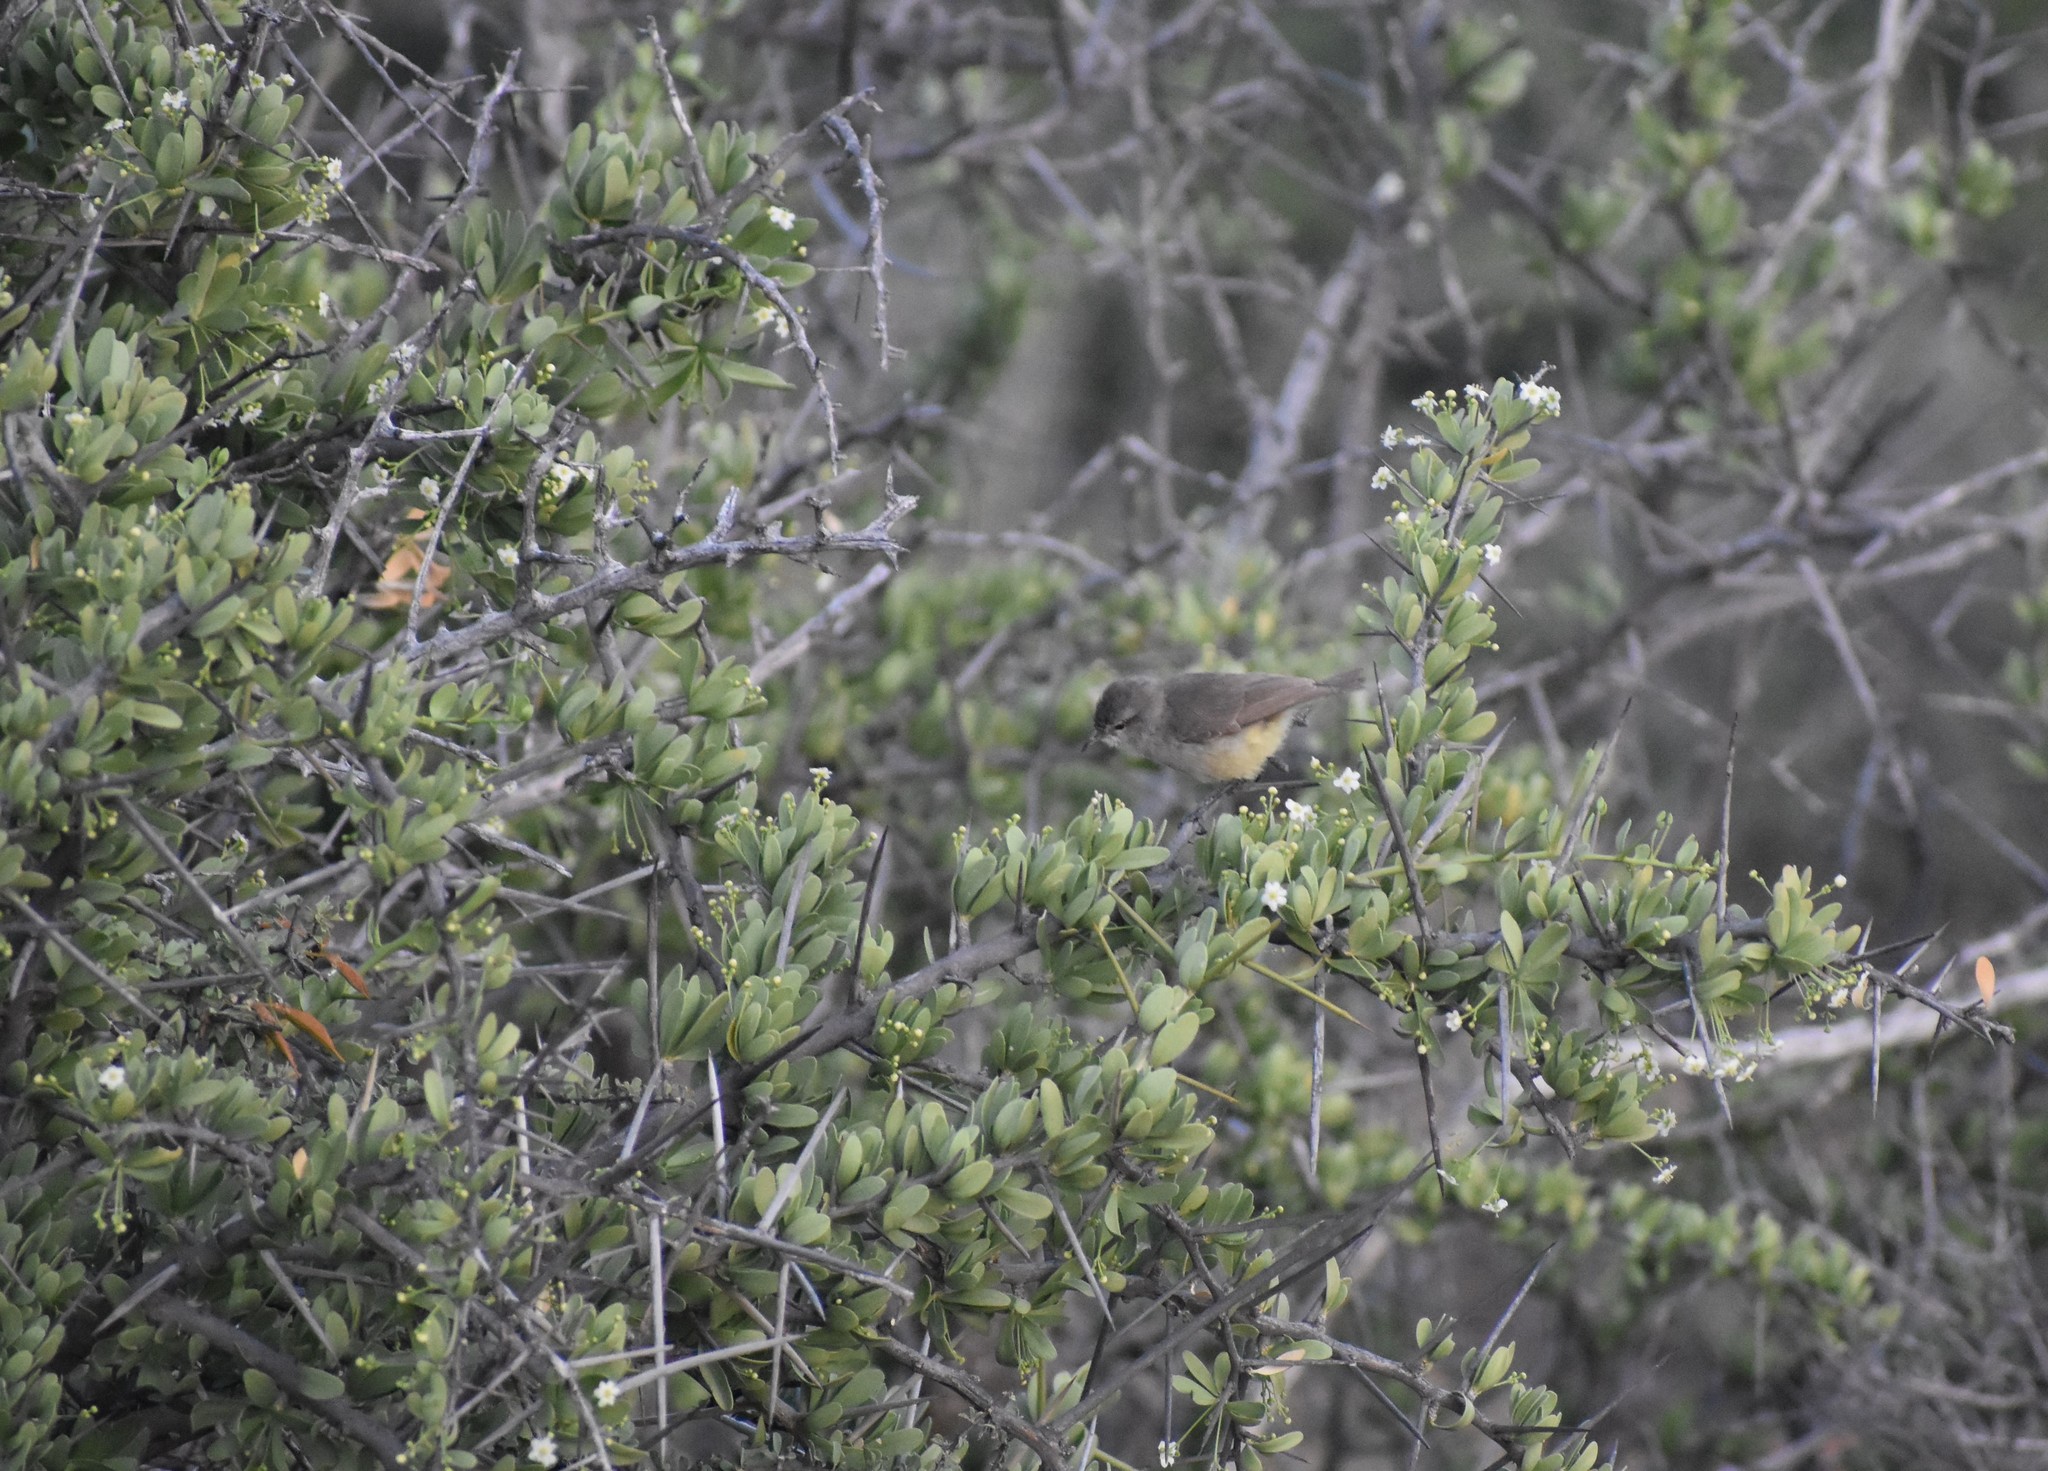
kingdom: Animalia
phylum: Chordata
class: Aves
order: Passeriformes
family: Cisticolidae
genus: Eremomela
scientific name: Eremomela icteropygialis
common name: Yellow-bellied eremomela
